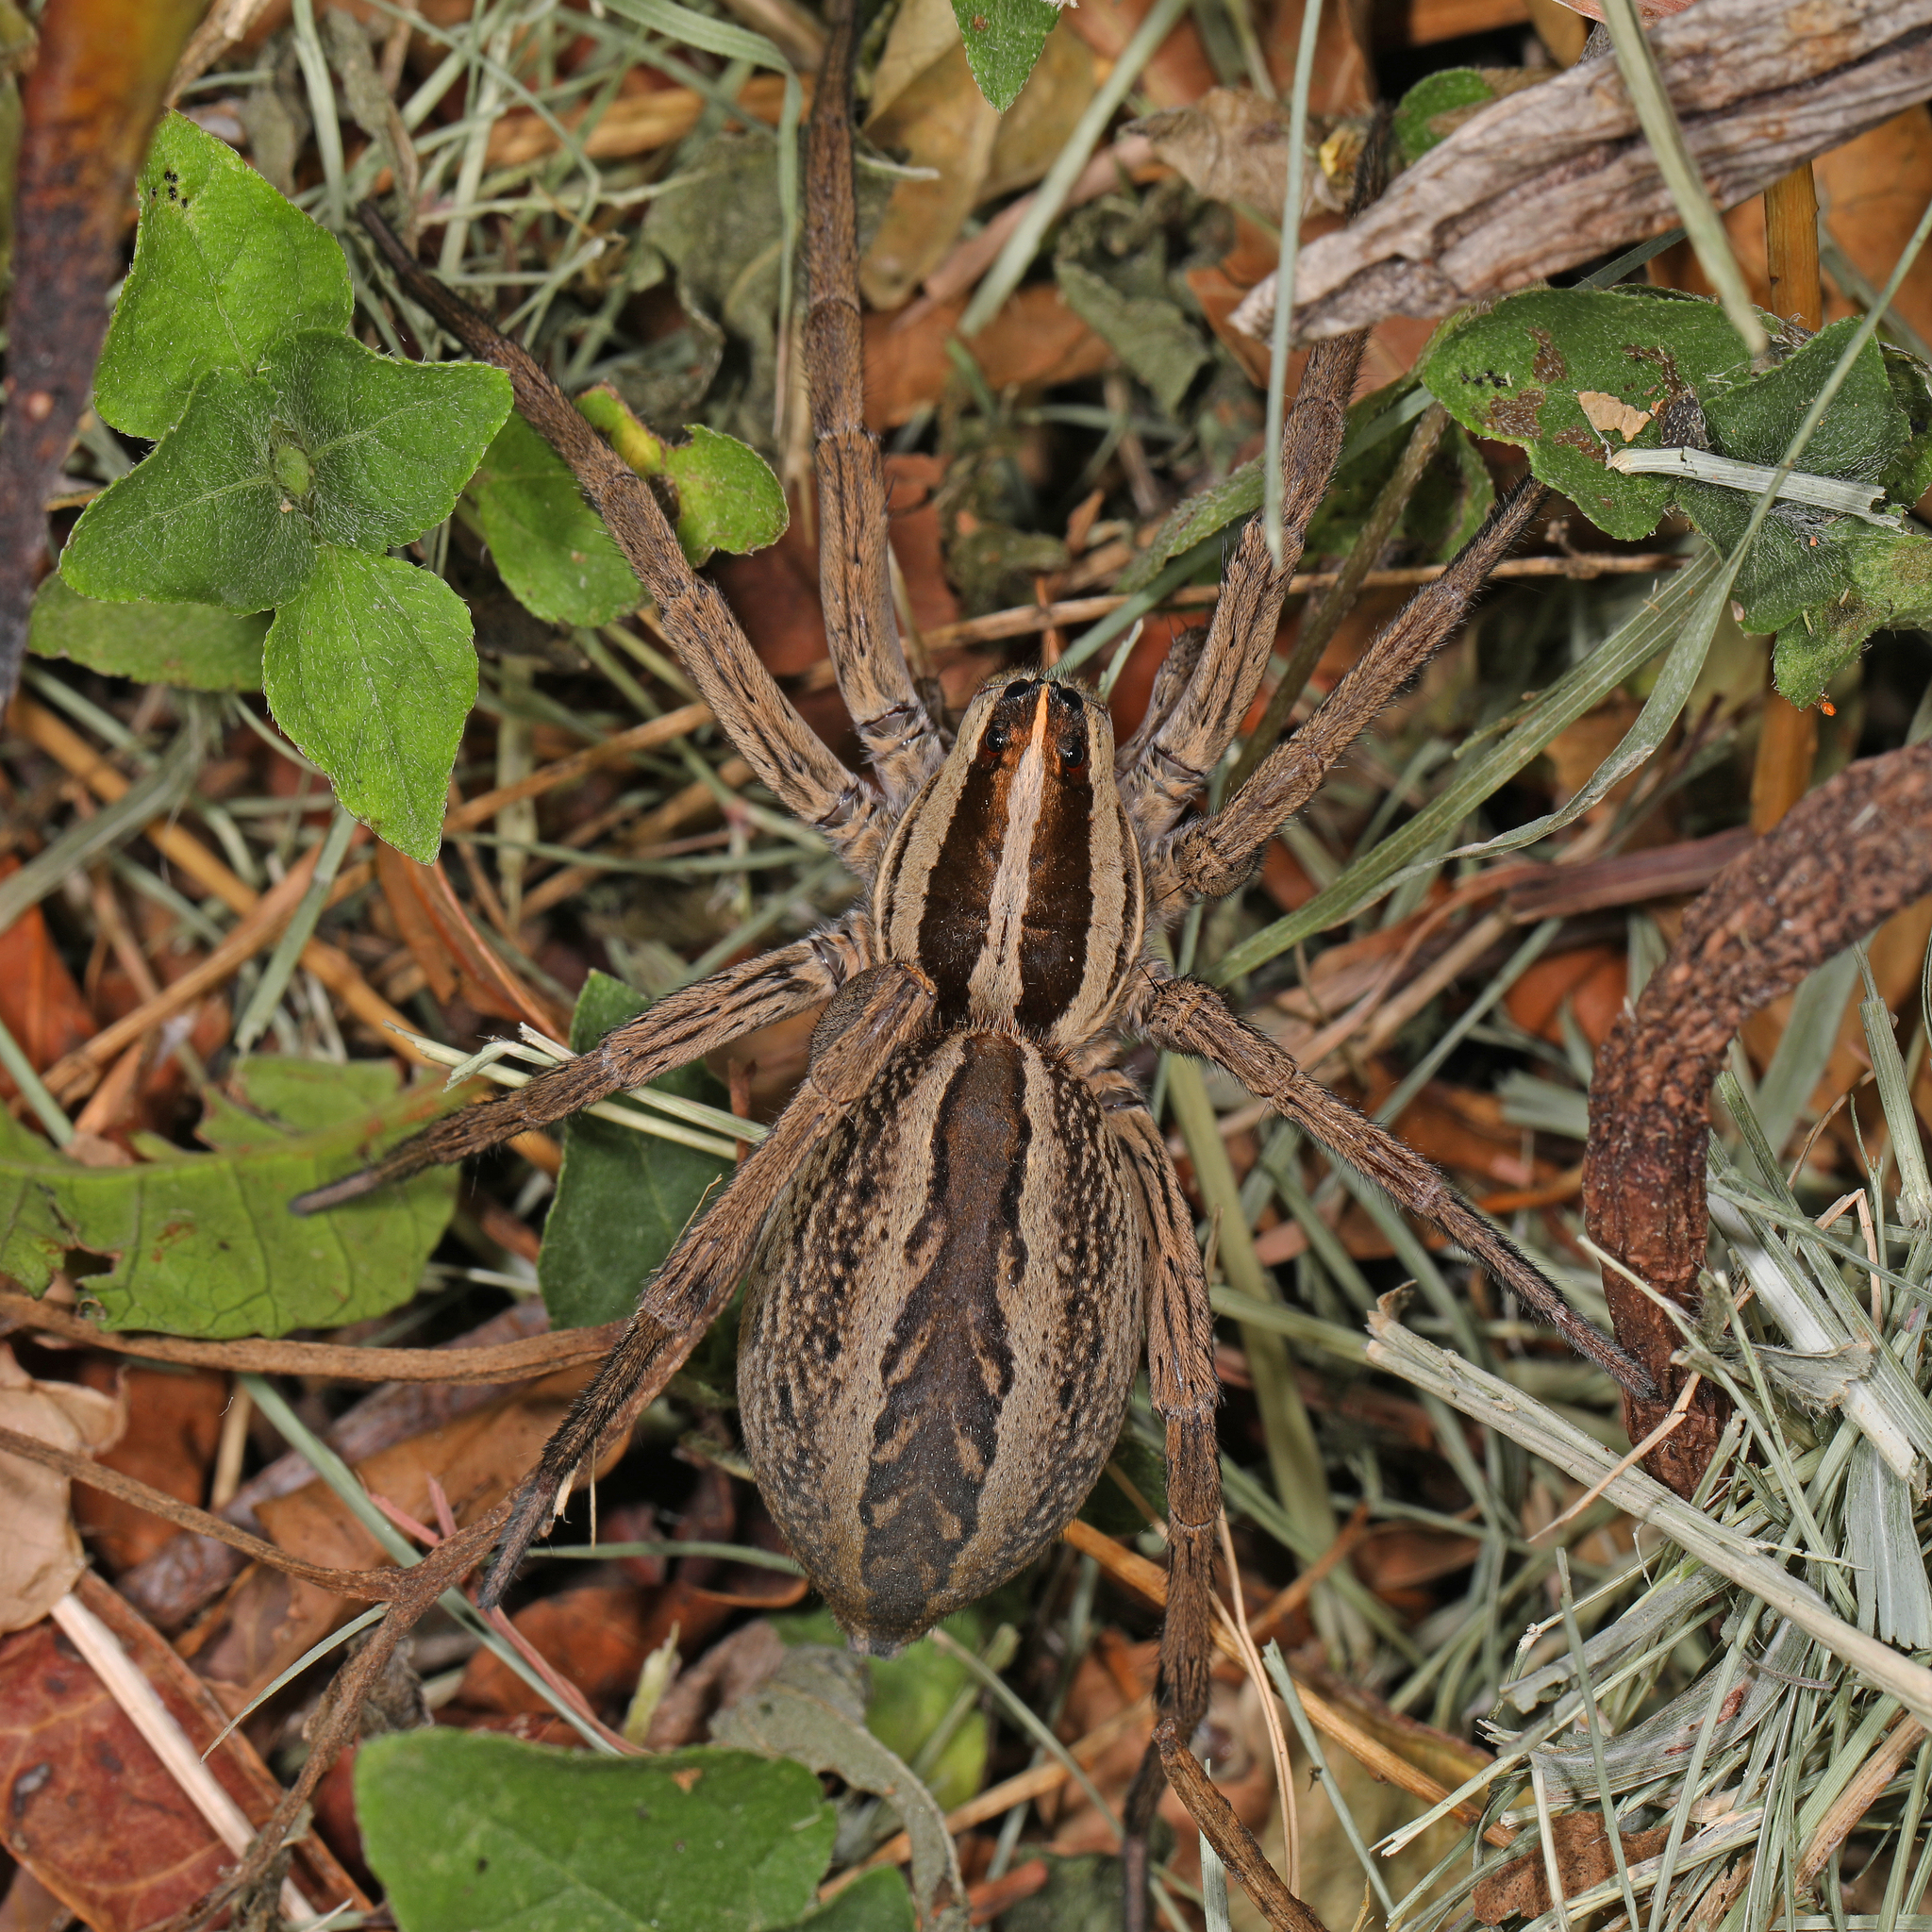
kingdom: Animalia
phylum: Arthropoda
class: Arachnida
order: Araneae
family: Lycosidae
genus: Rabidosa
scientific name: Rabidosa rabida
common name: Rabid wolf spider
